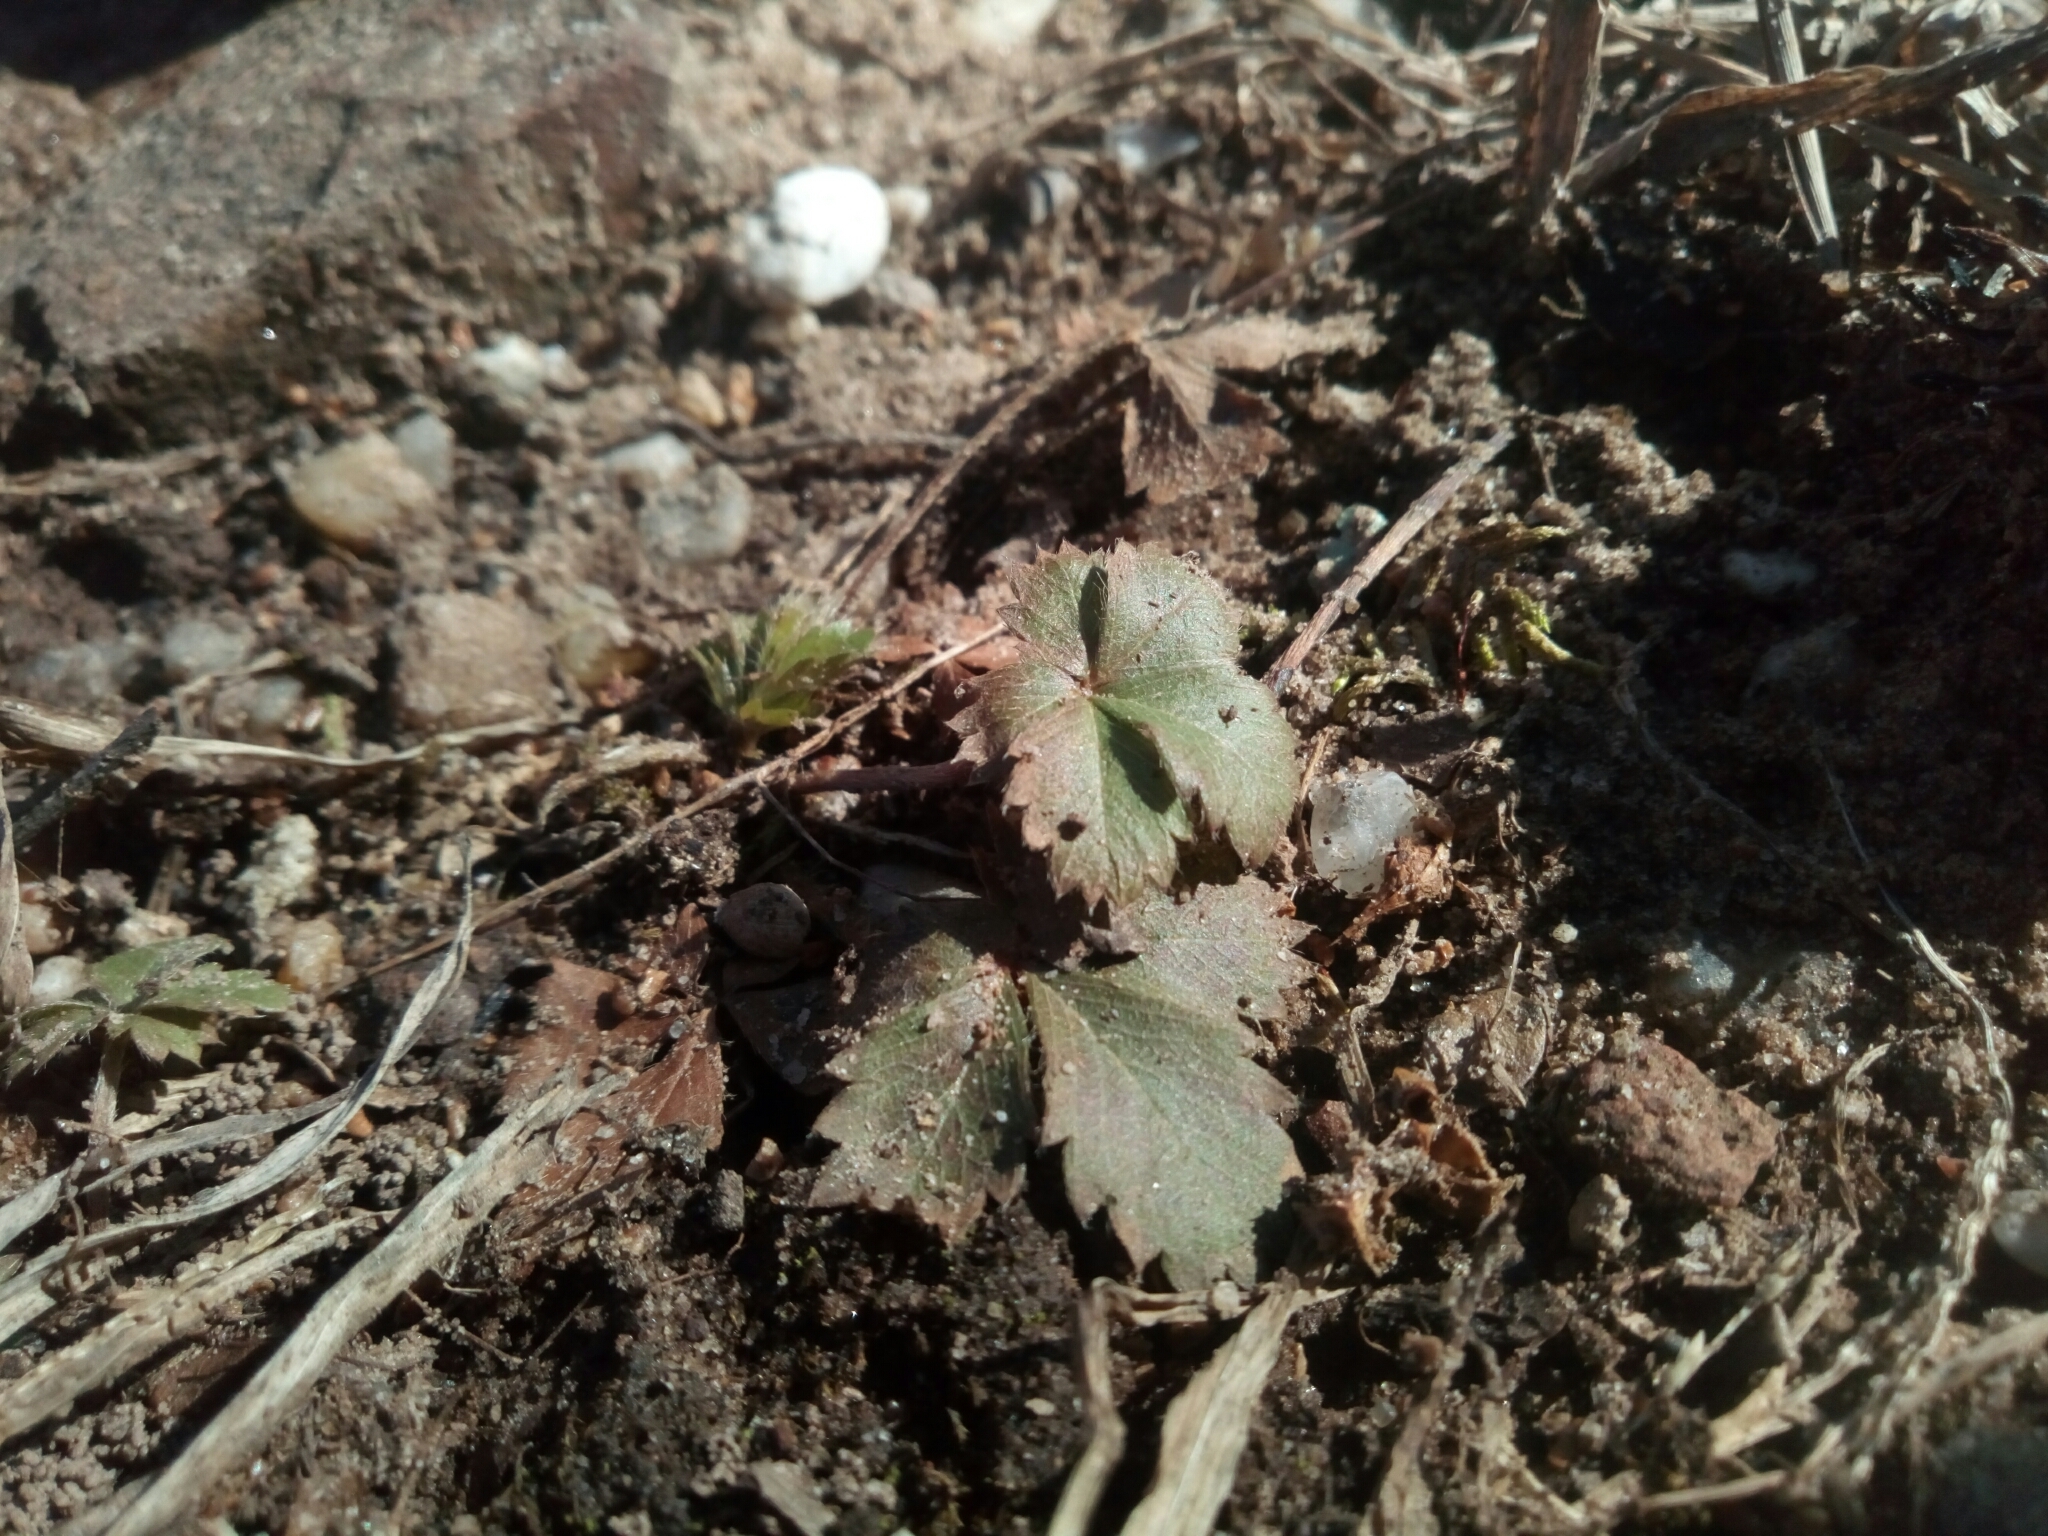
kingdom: Plantae
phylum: Tracheophyta
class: Magnoliopsida
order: Rosales
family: Rosaceae
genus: Potentilla
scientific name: Potentilla
